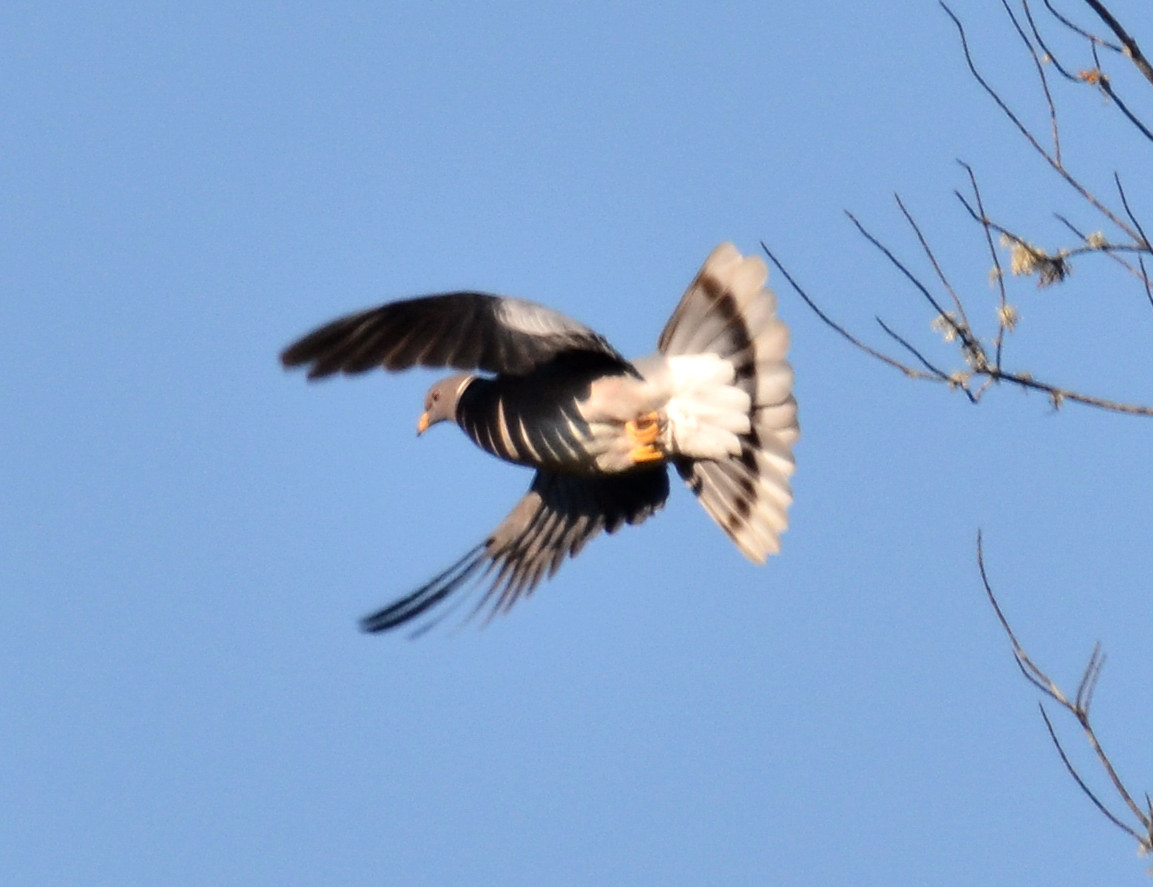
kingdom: Animalia
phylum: Chordata
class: Aves
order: Columbiformes
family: Columbidae
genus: Patagioenas
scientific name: Patagioenas fasciata
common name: Band-tailed pigeon
